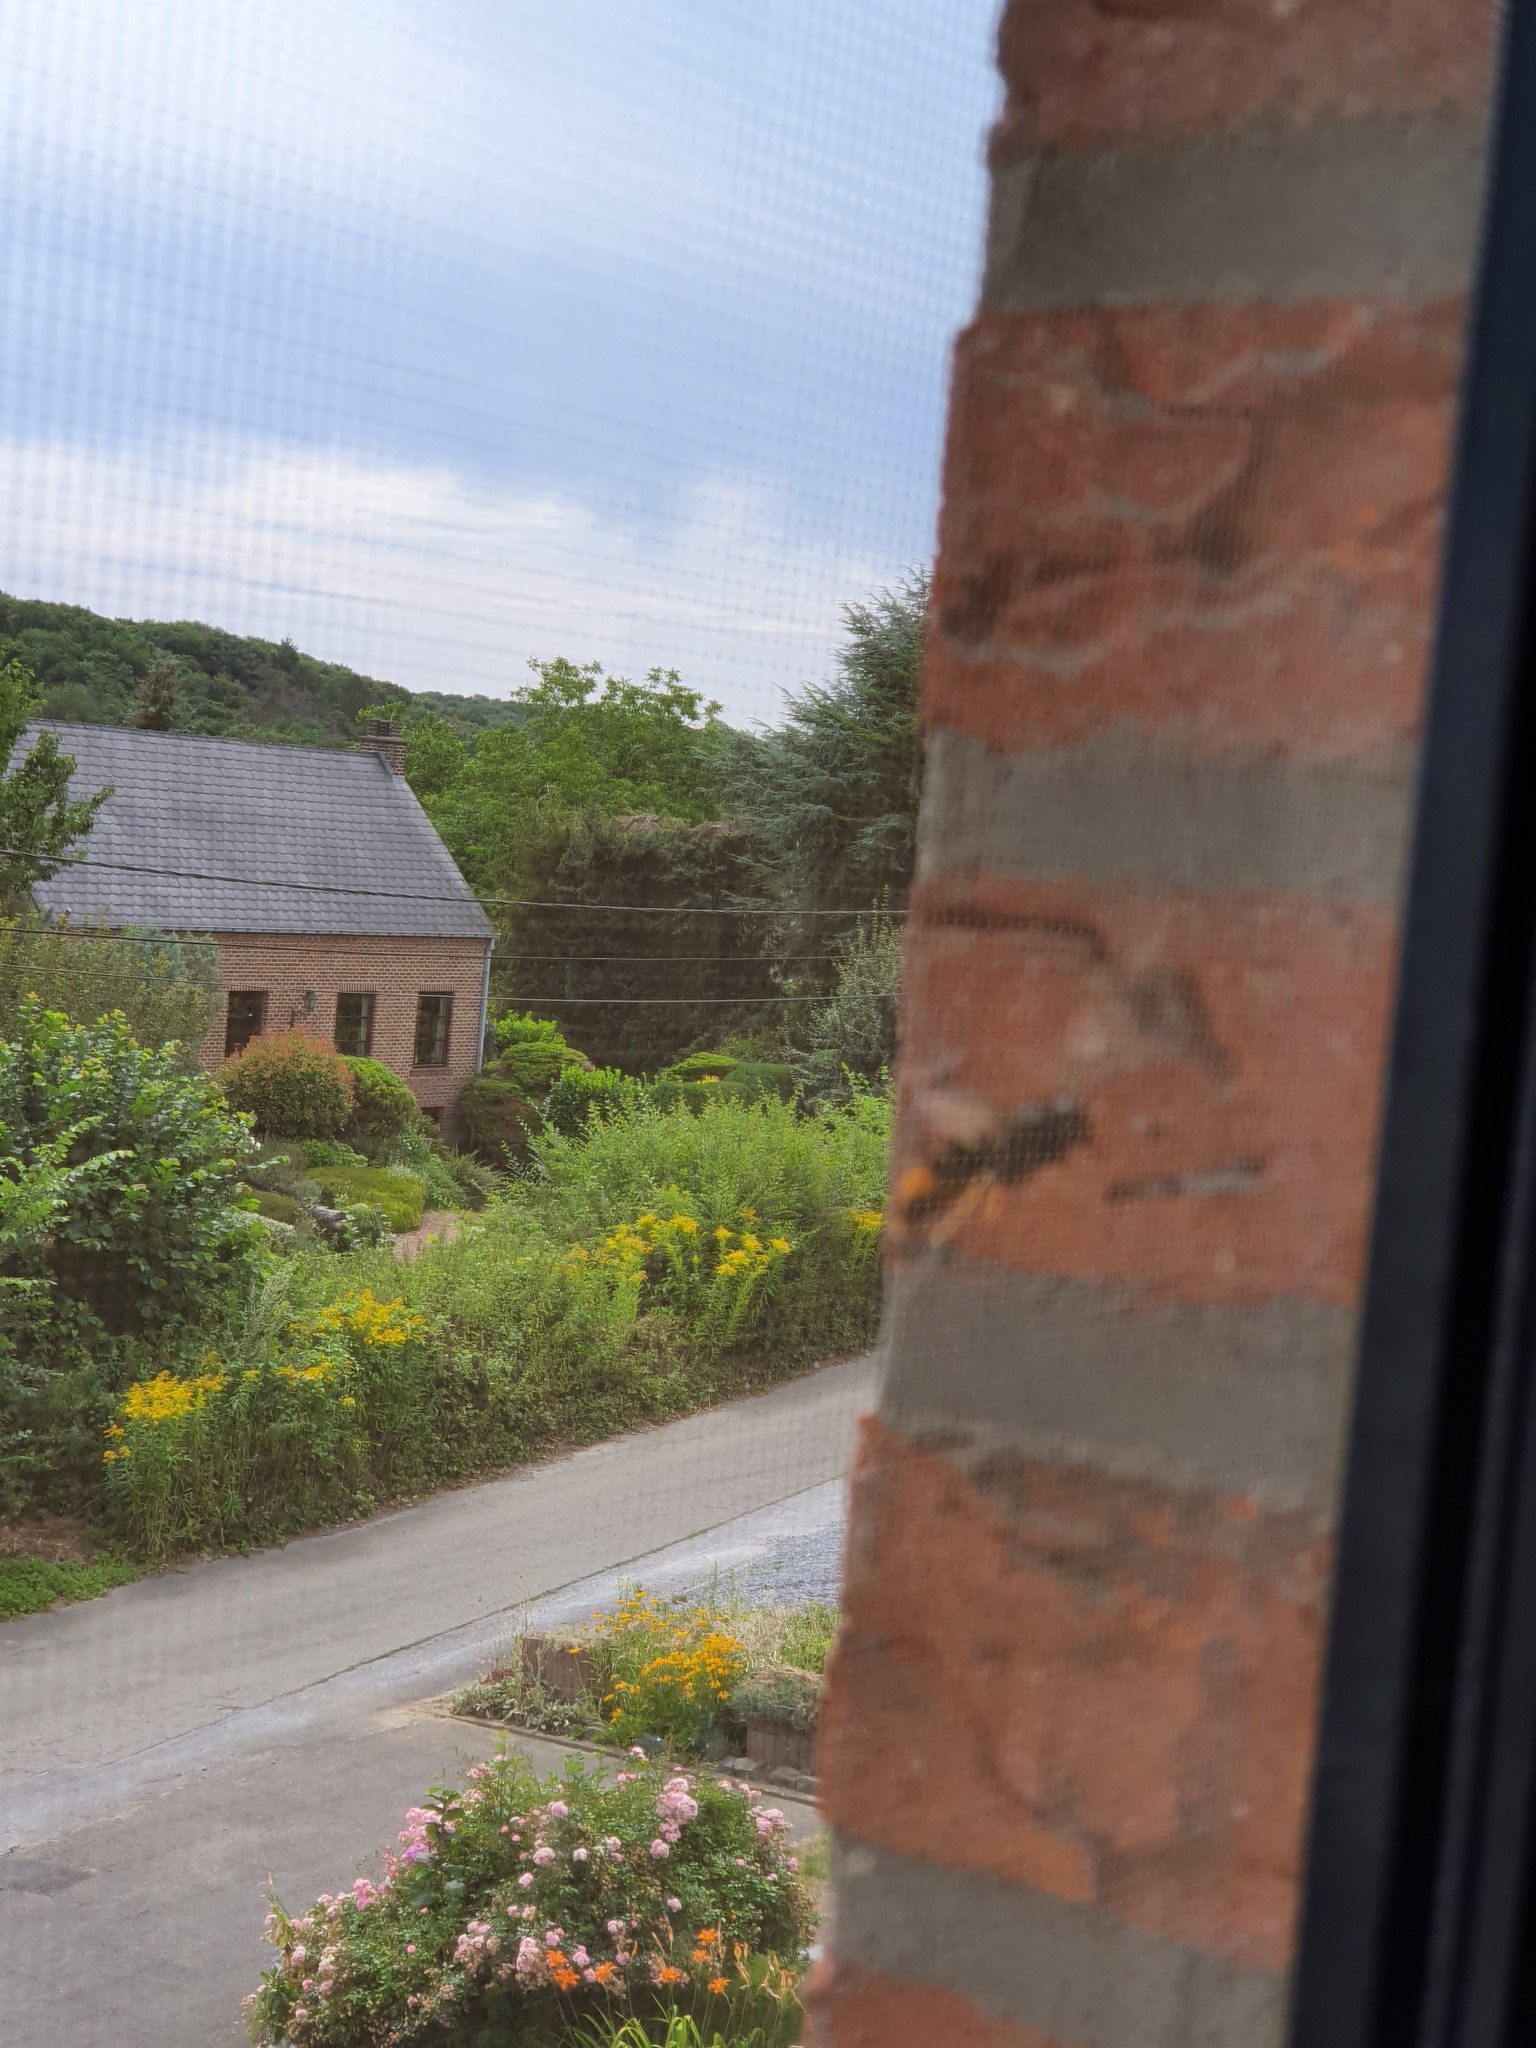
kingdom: Animalia
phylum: Arthropoda
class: Insecta
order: Hymenoptera
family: Vespidae
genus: Vespa
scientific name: Vespa velutina
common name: Asian hornet
